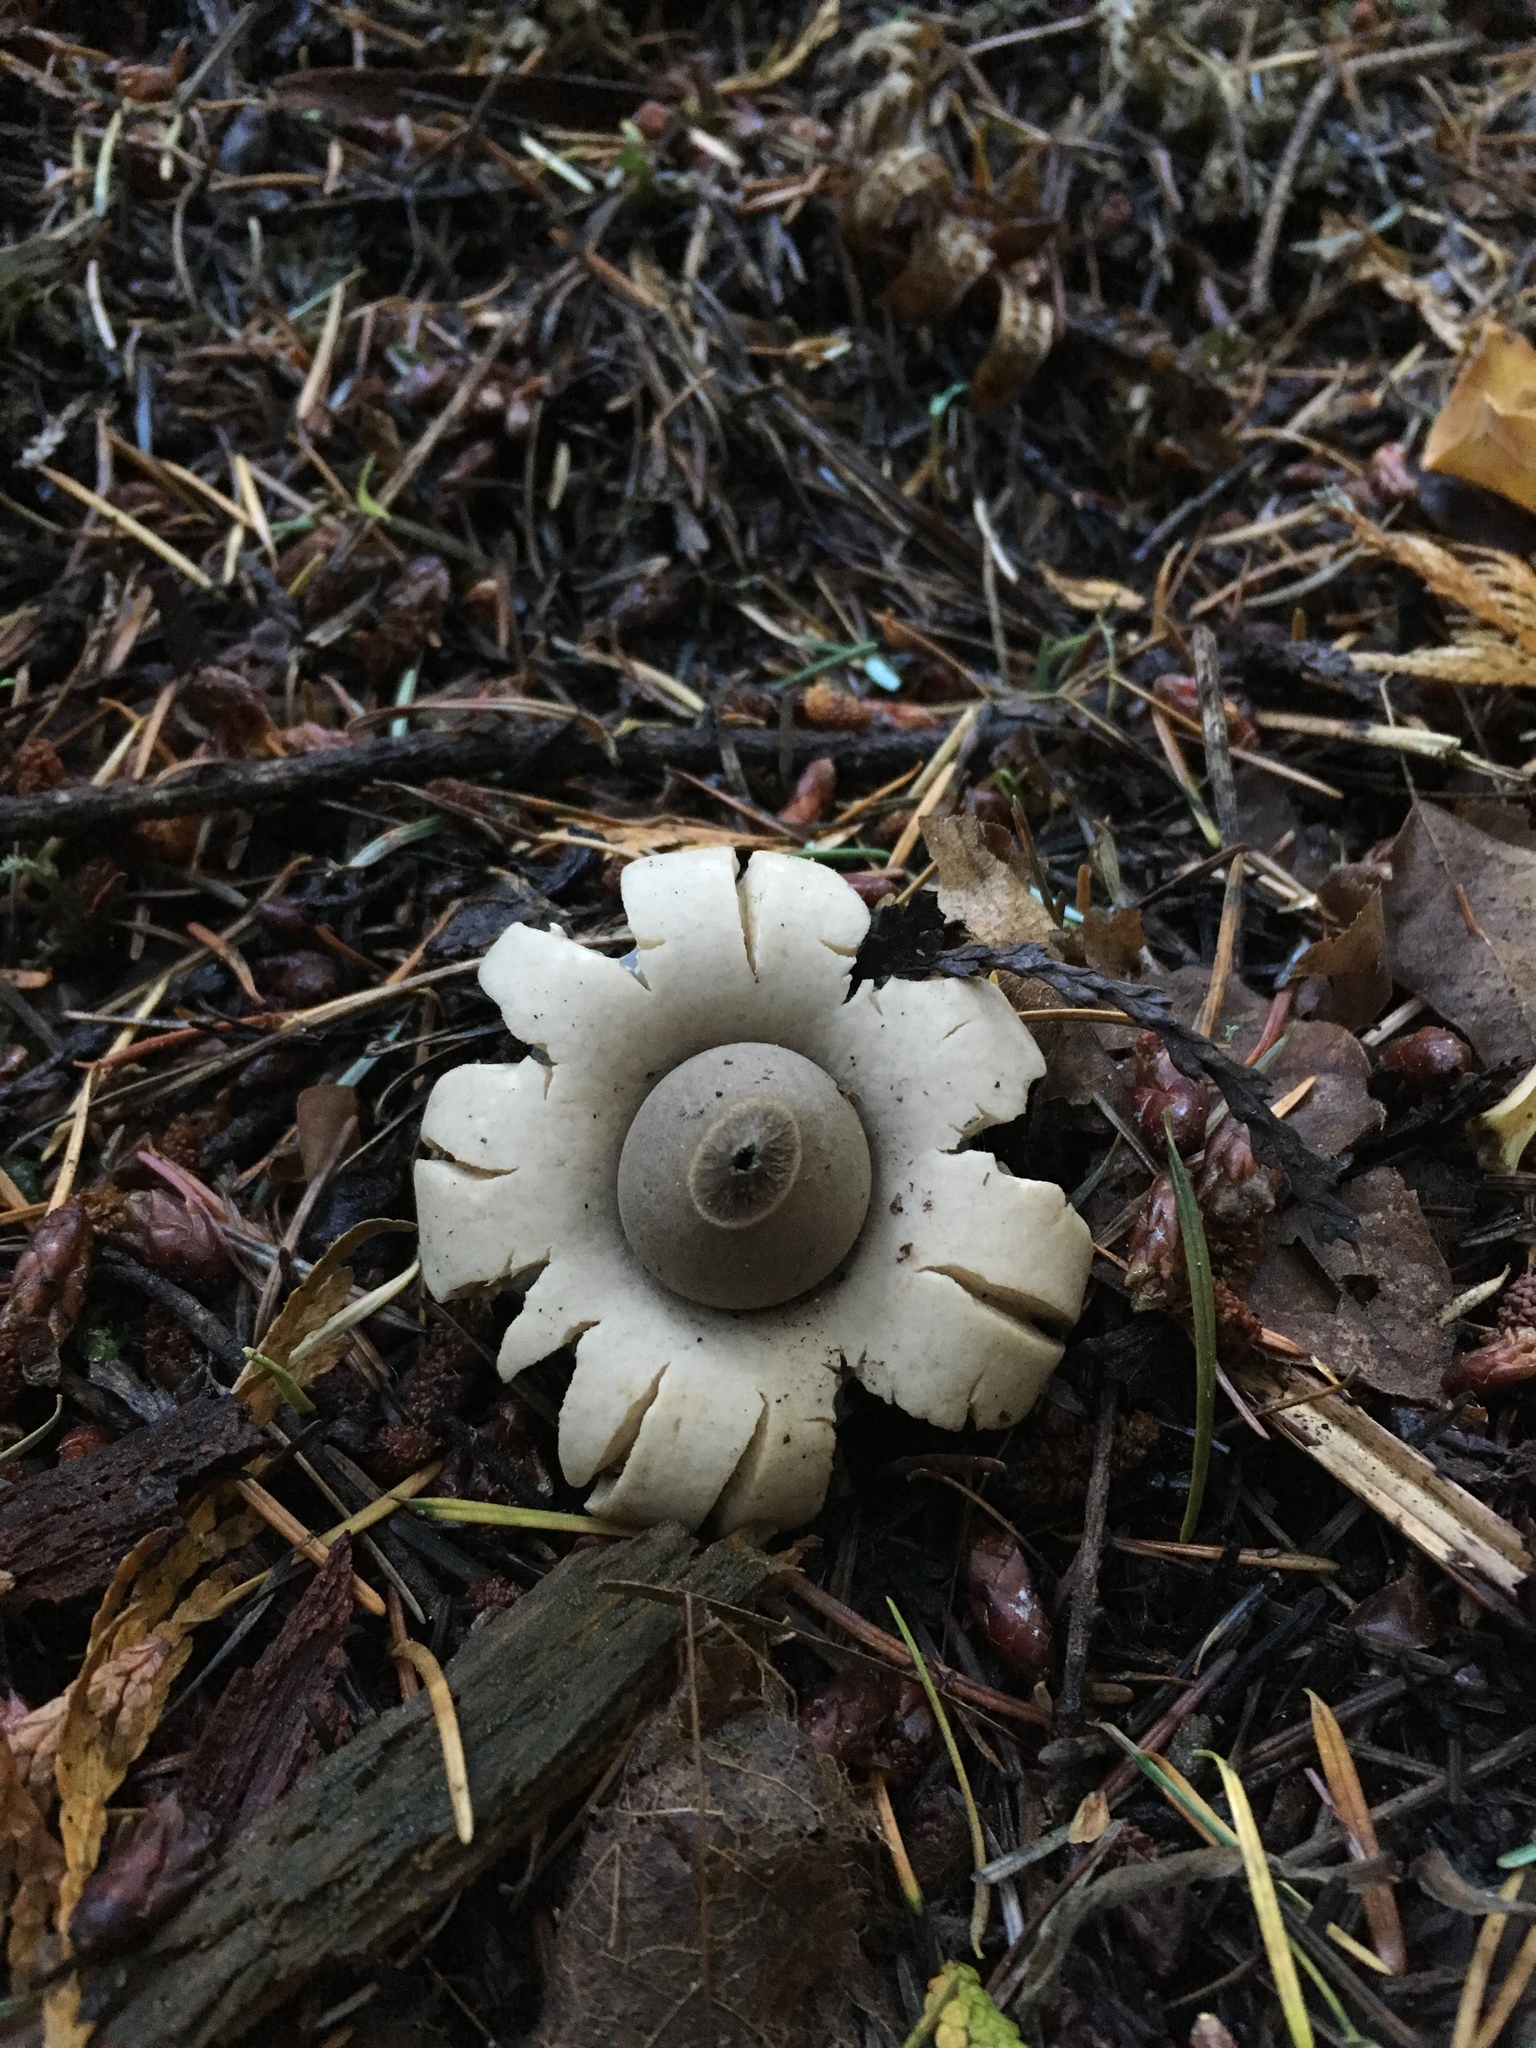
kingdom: Fungi
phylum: Basidiomycota
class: Agaricomycetes
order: Geastrales
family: Geastraceae
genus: Geastrum
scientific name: Geastrum saccatum
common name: Rounded earthstar
